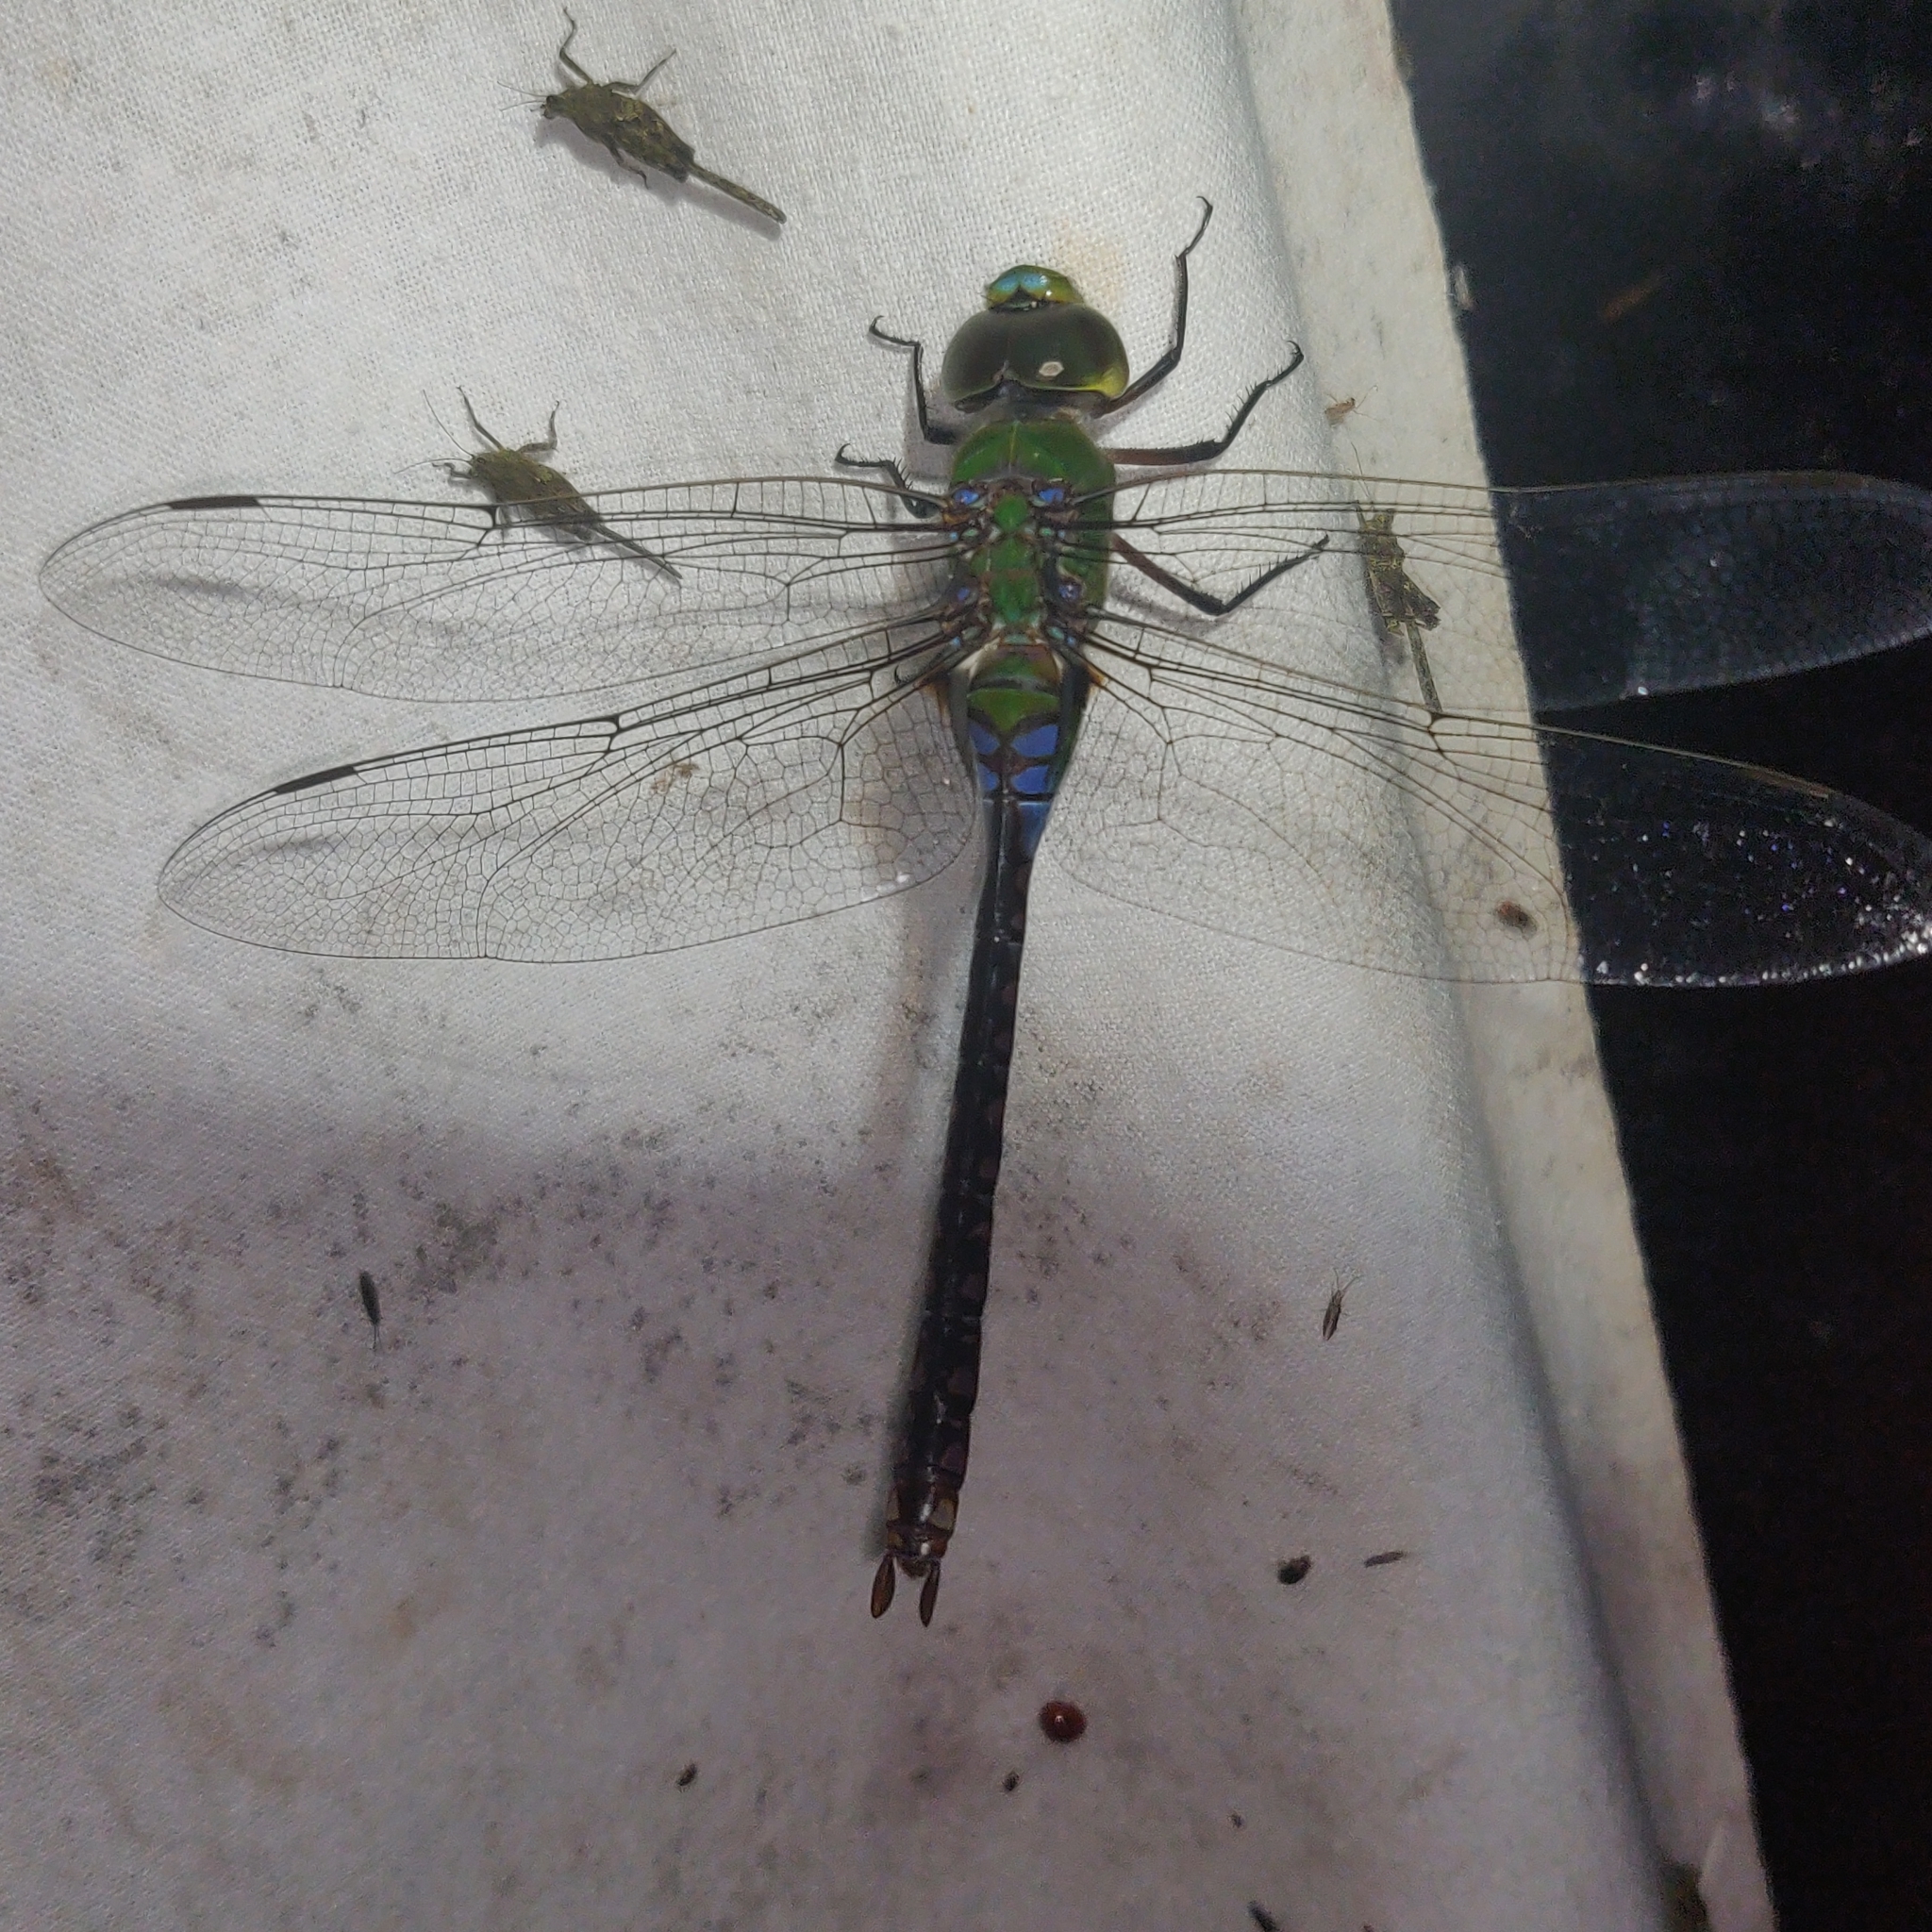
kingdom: Animalia
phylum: Arthropoda
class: Insecta
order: Odonata
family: Aeshnidae
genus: Anax
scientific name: Anax guttatus
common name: Emperor
